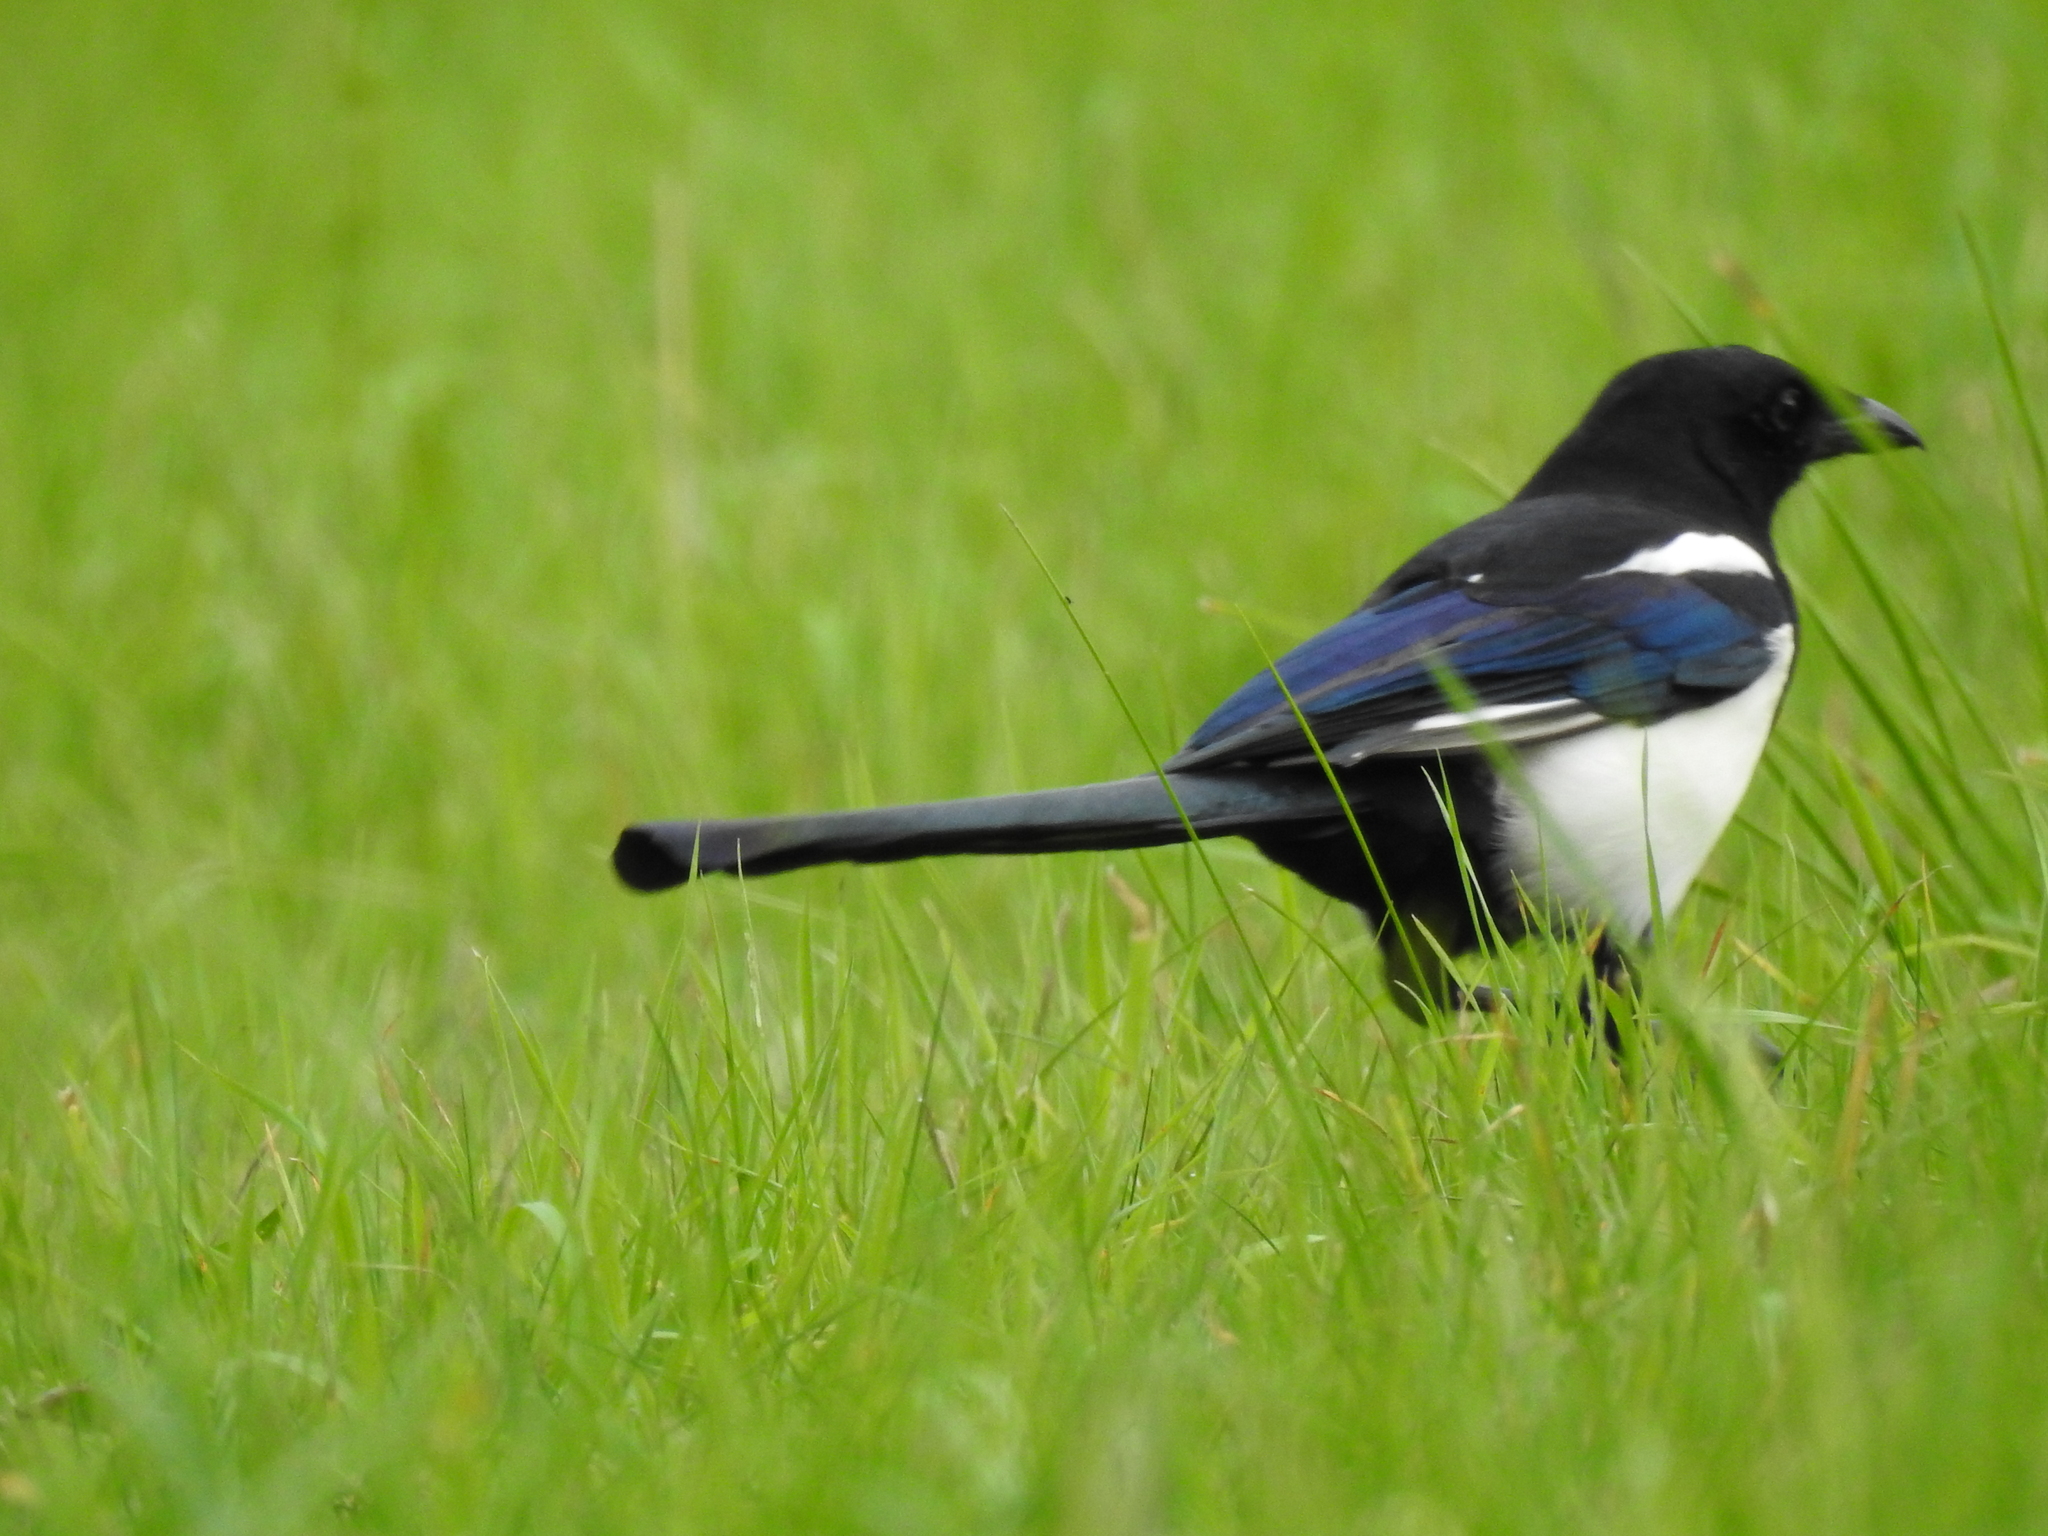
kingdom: Animalia
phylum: Chordata
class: Aves
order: Passeriformes
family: Corvidae
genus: Pica
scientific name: Pica pica
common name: Eurasian magpie
